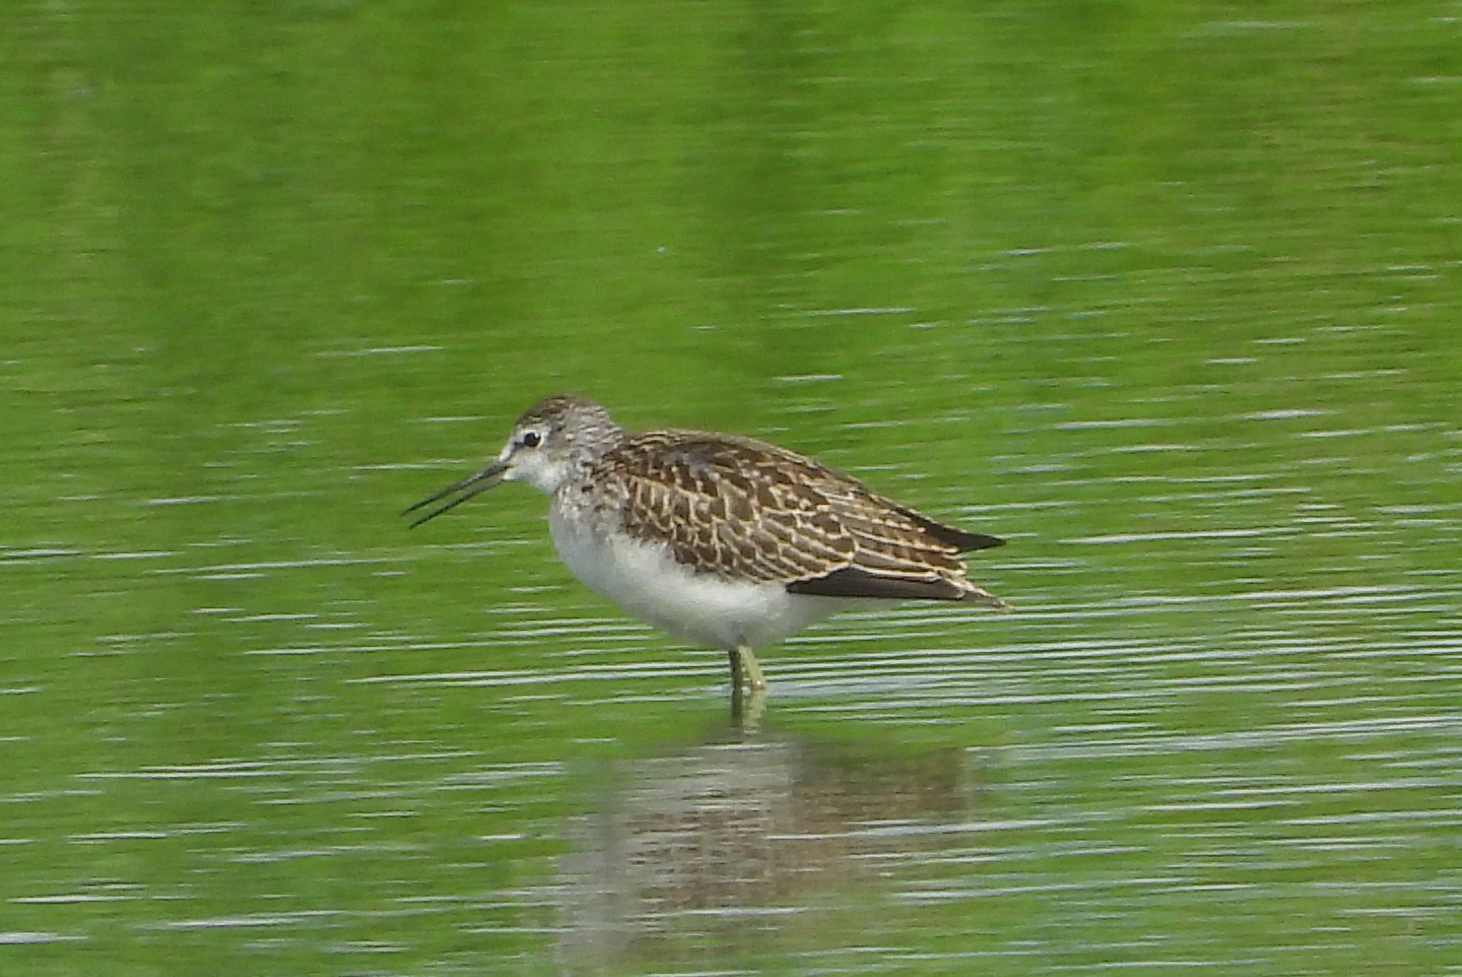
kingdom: Animalia
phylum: Chordata
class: Aves
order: Charadriiformes
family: Scolopacidae
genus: Tringa
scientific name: Tringa stagnatilis
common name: Marsh sandpiper
